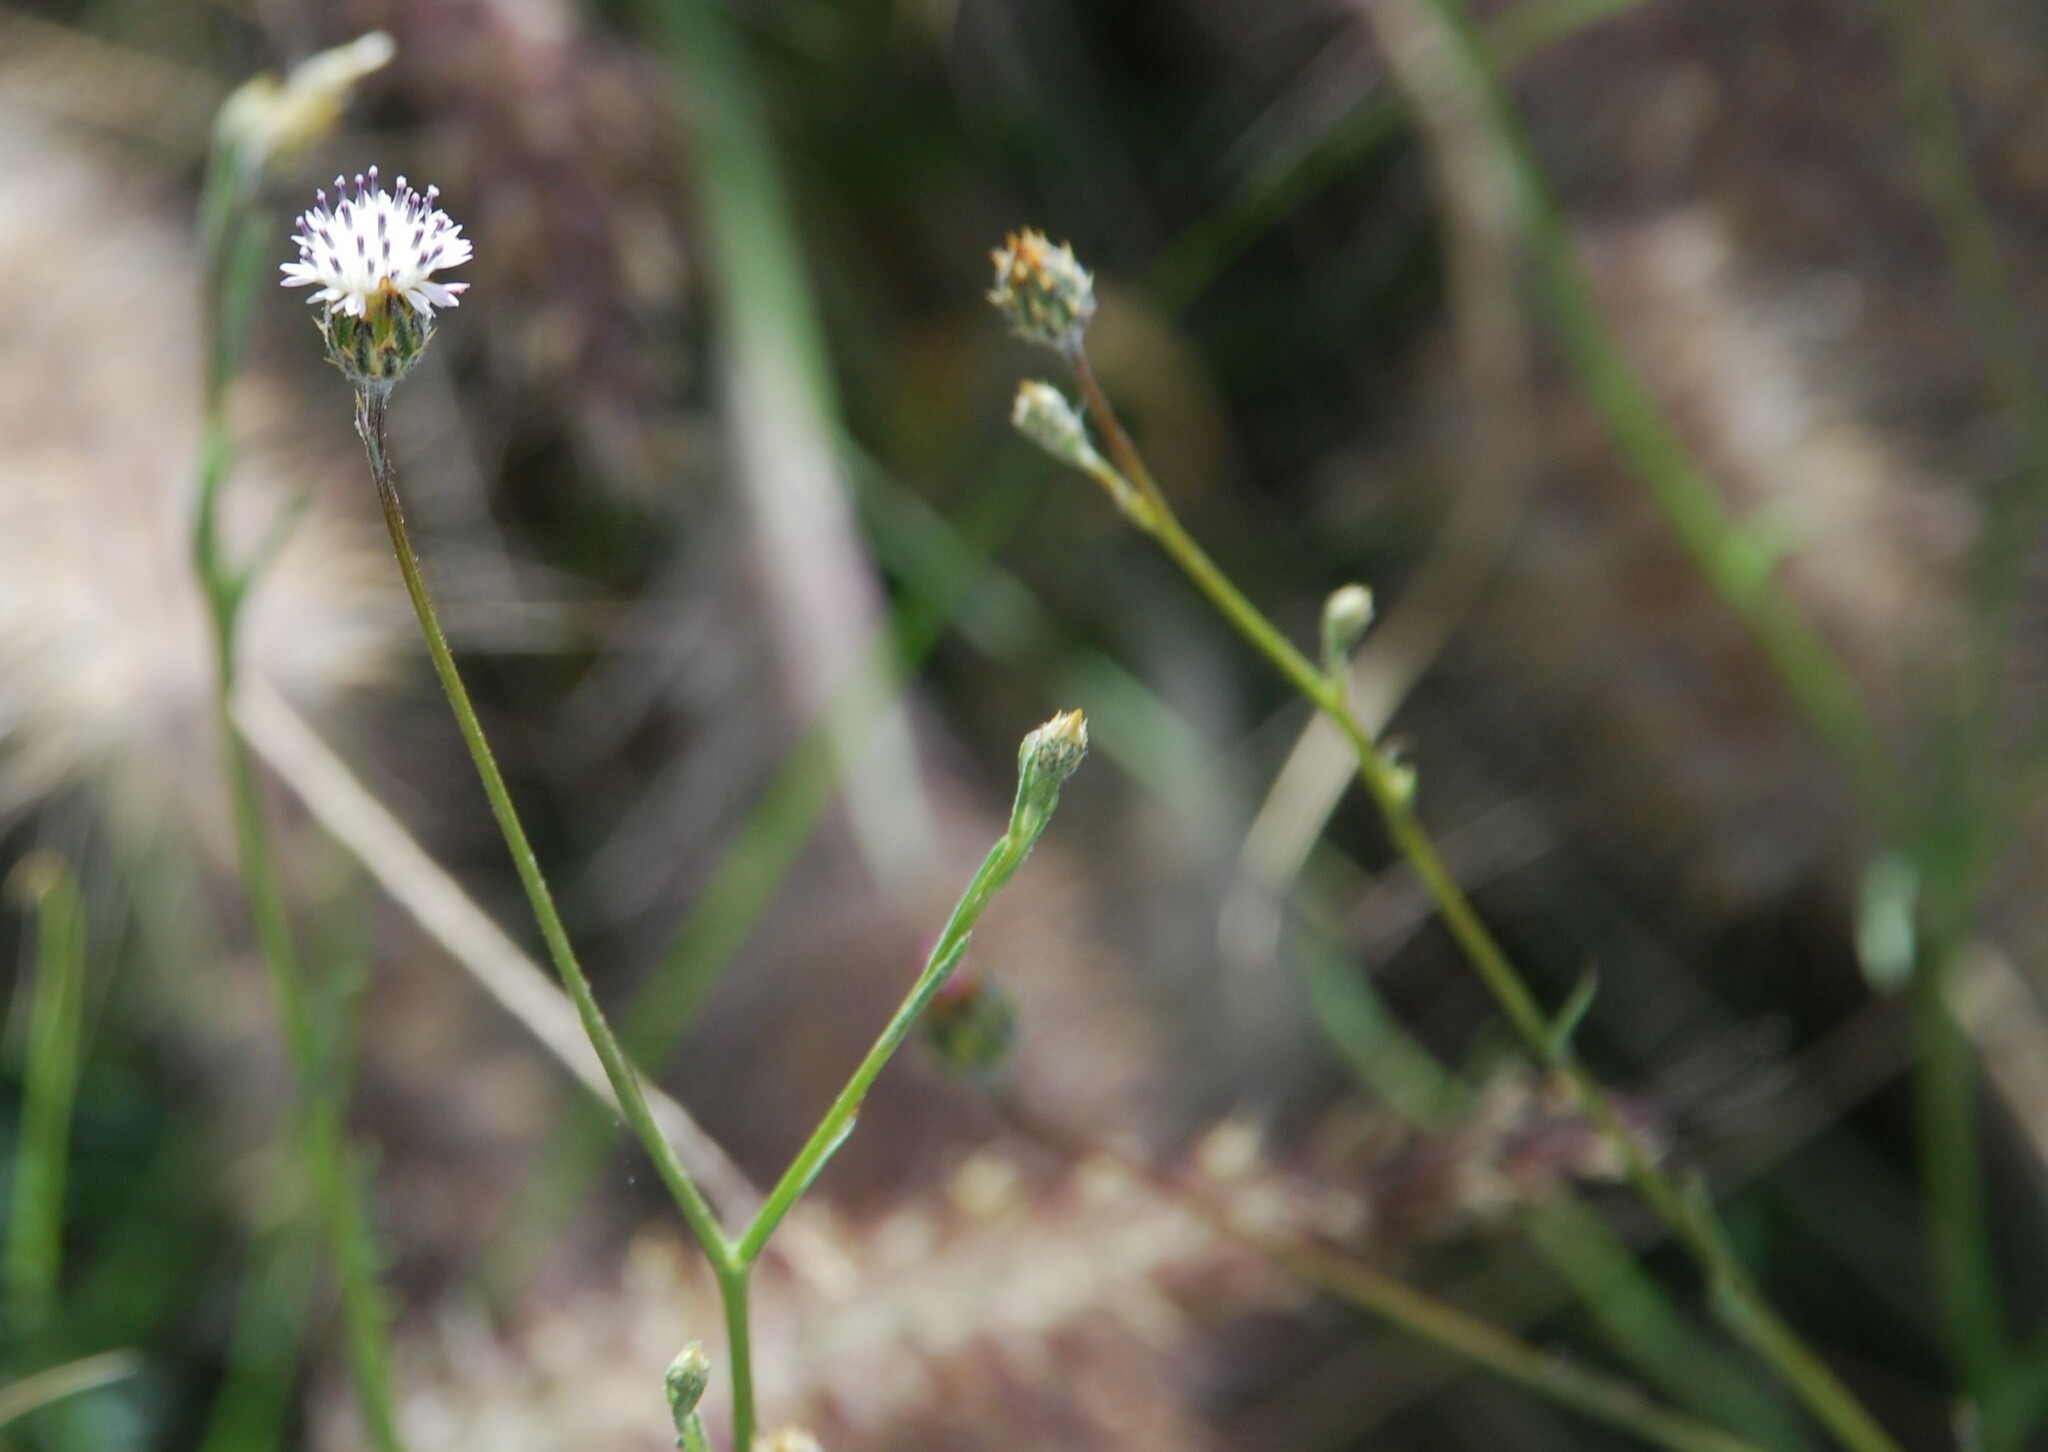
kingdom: Plantae
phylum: Tracheophyta
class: Magnoliopsida
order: Asterales
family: Asteraceae
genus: Volutaria
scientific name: Volutaria tubuliflora
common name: Desert knapweed
